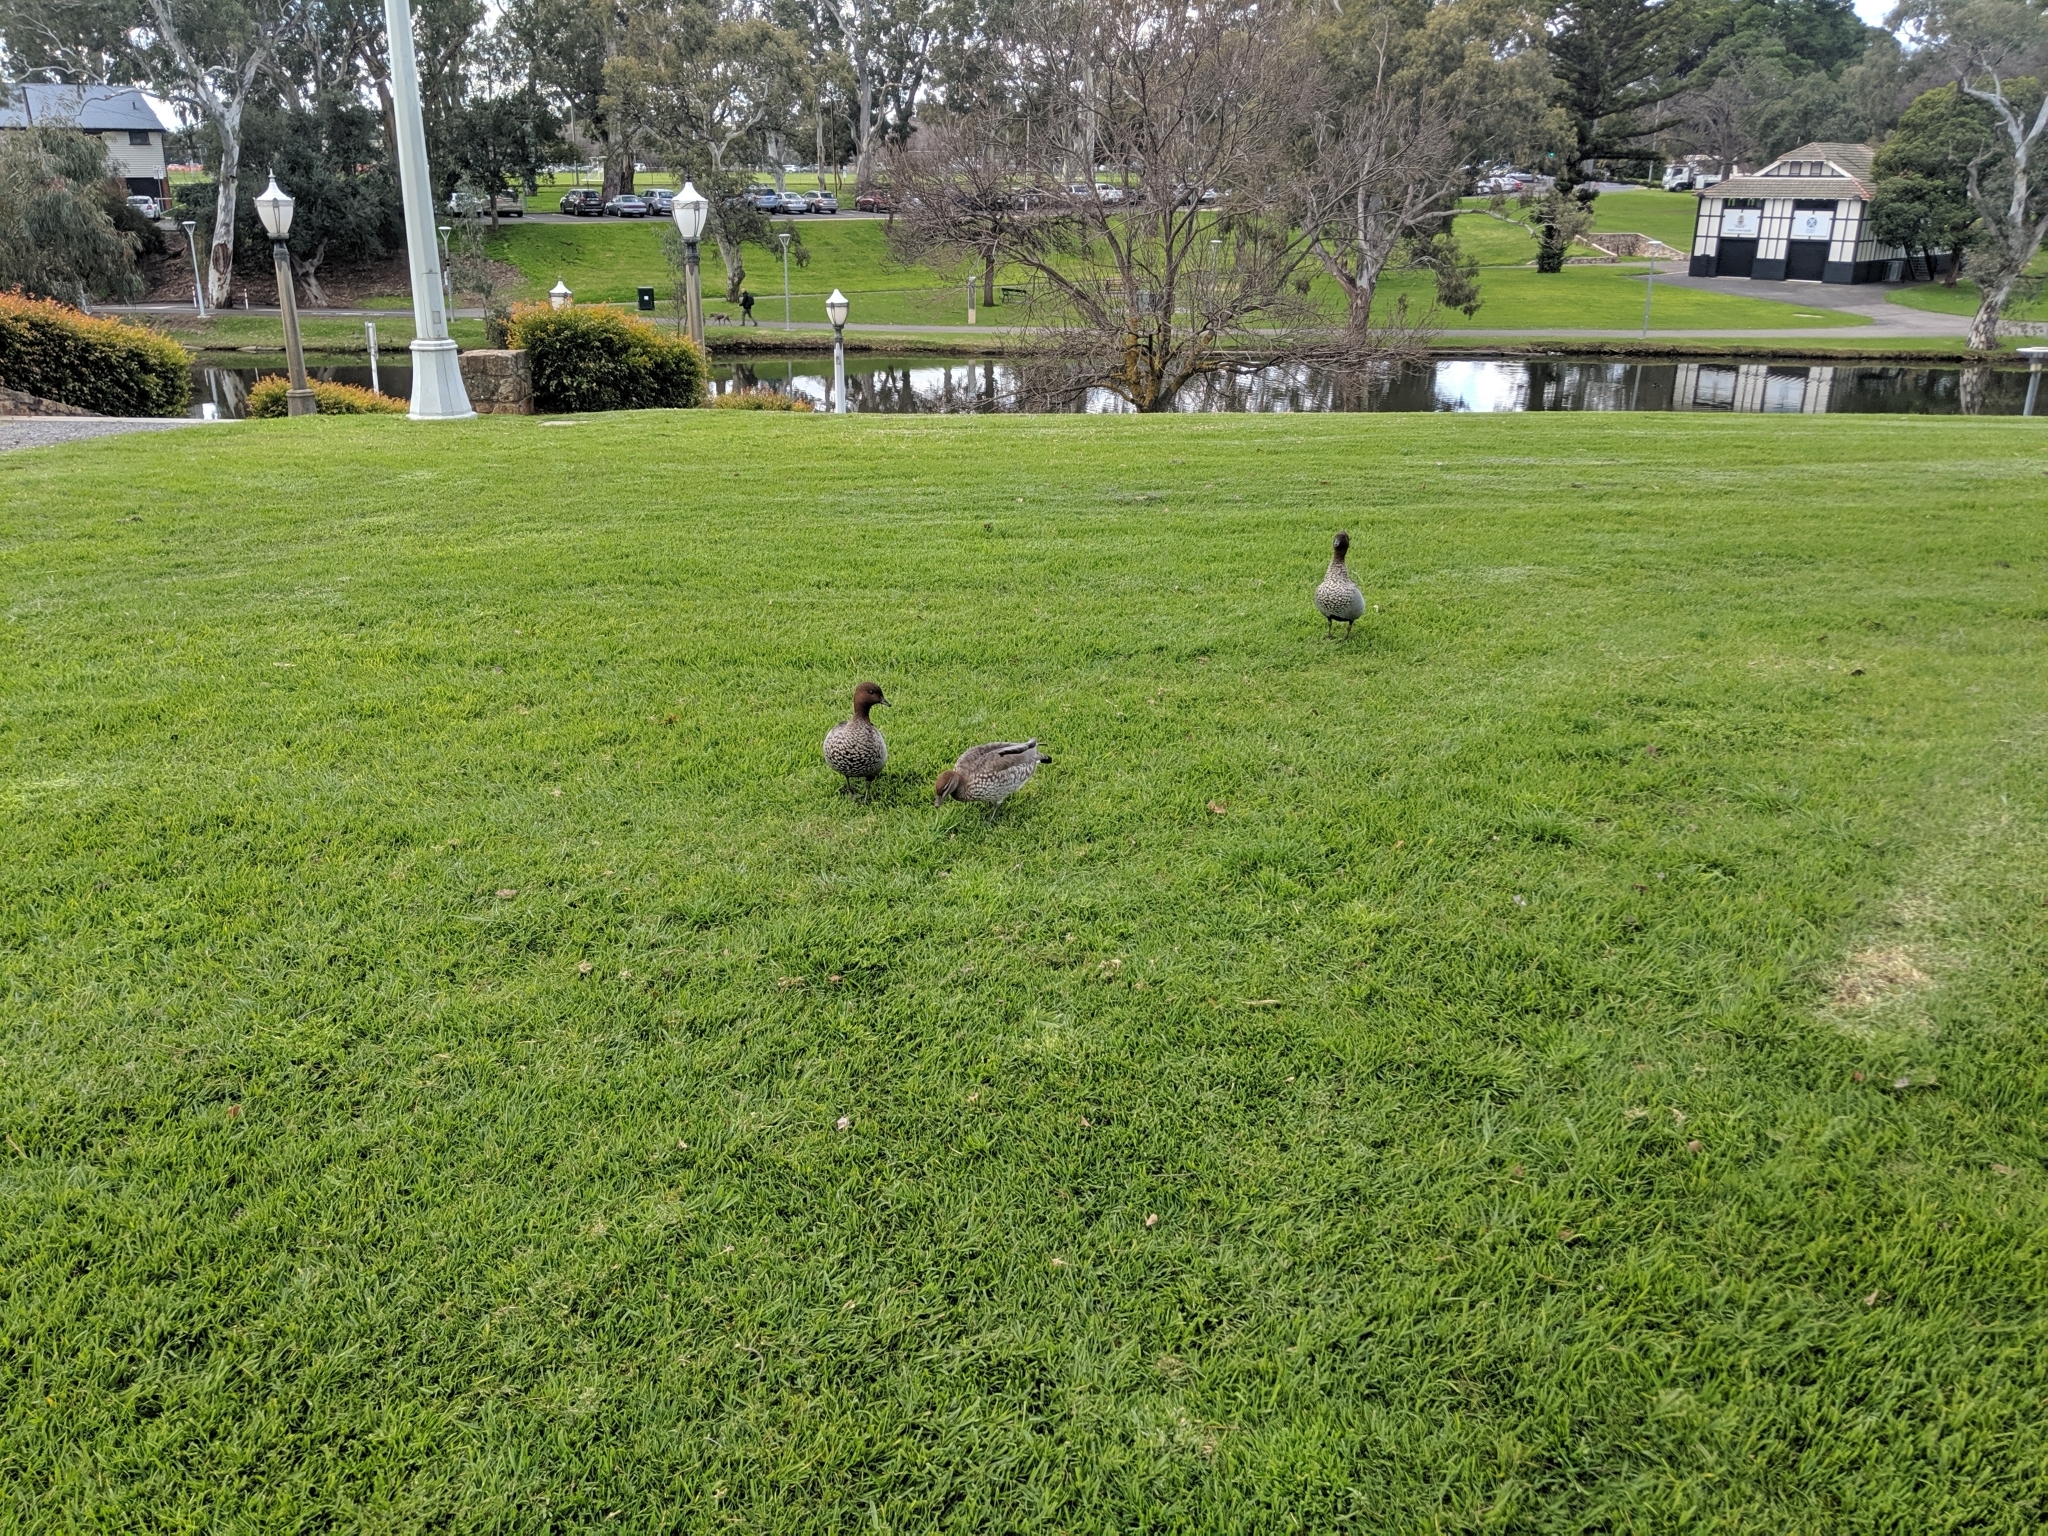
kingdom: Animalia
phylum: Chordata
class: Aves
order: Anseriformes
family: Anatidae
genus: Chenonetta
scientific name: Chenonetta jubata
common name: Maned duck
